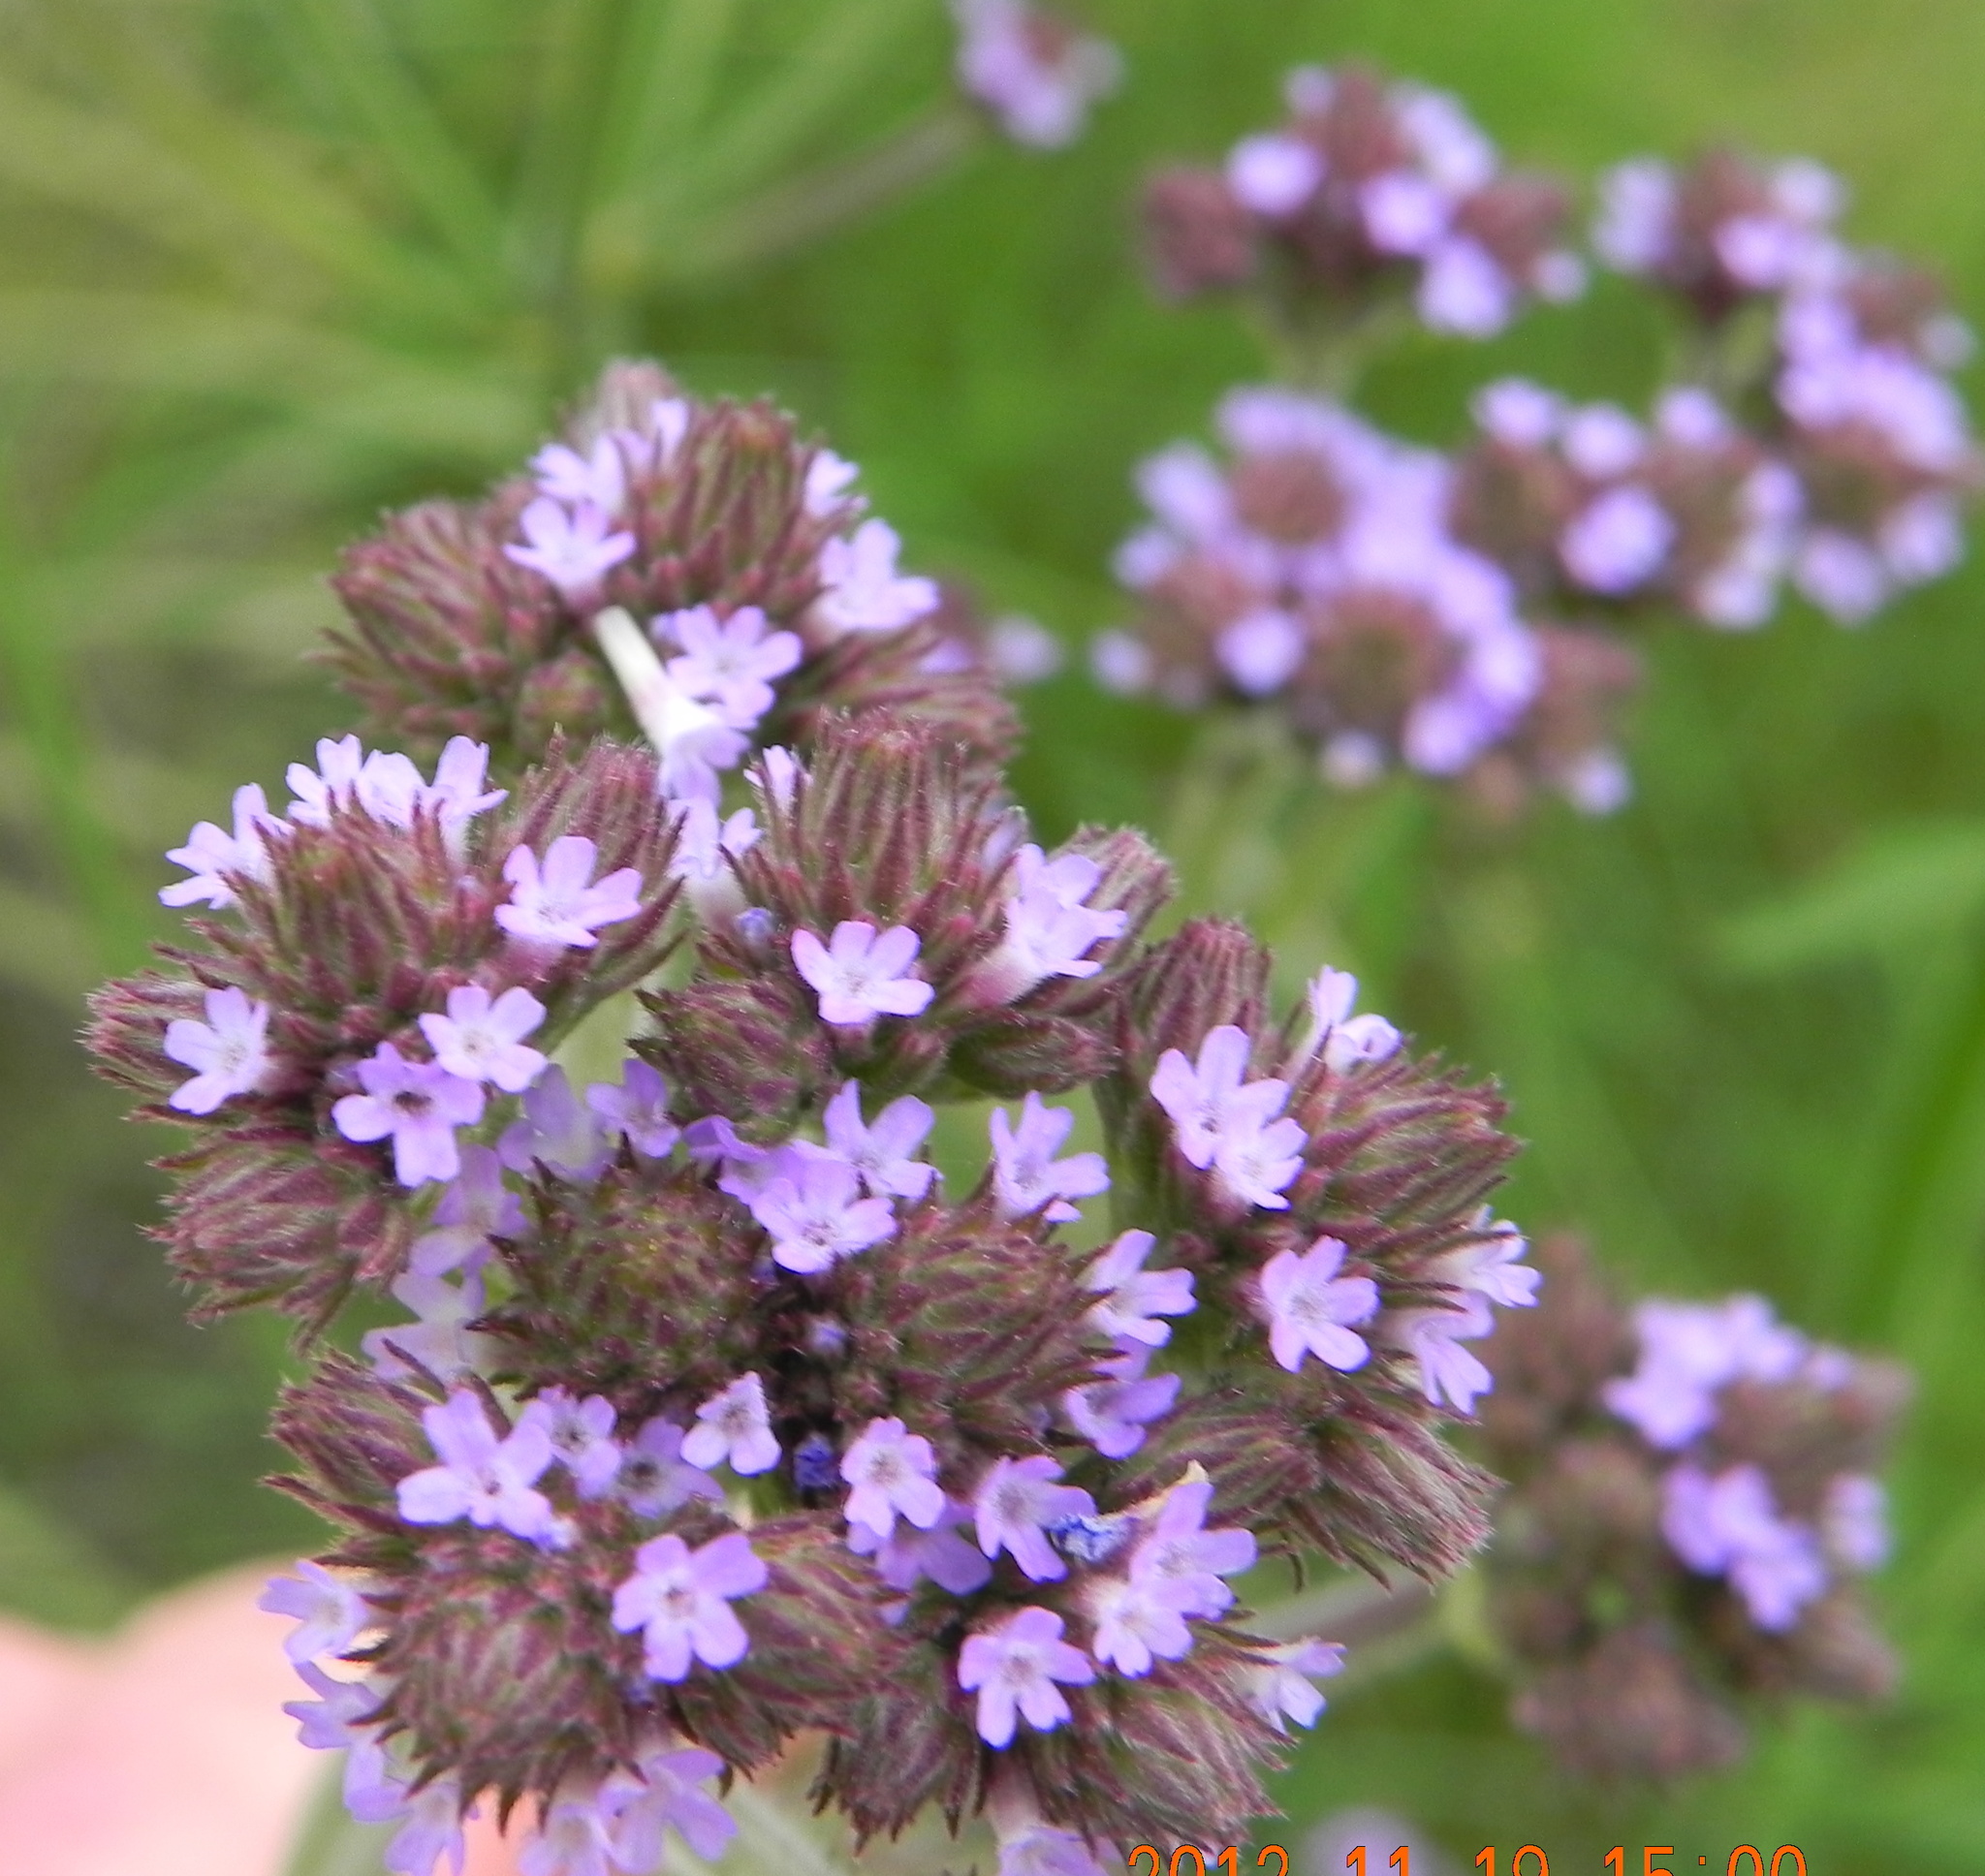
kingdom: Plantae
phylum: Tracheophyta
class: Magnoliopsida
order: Lamiales
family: Verbenaceae
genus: Verbena
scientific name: Verbena bonariensis
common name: Purpletop vervain
